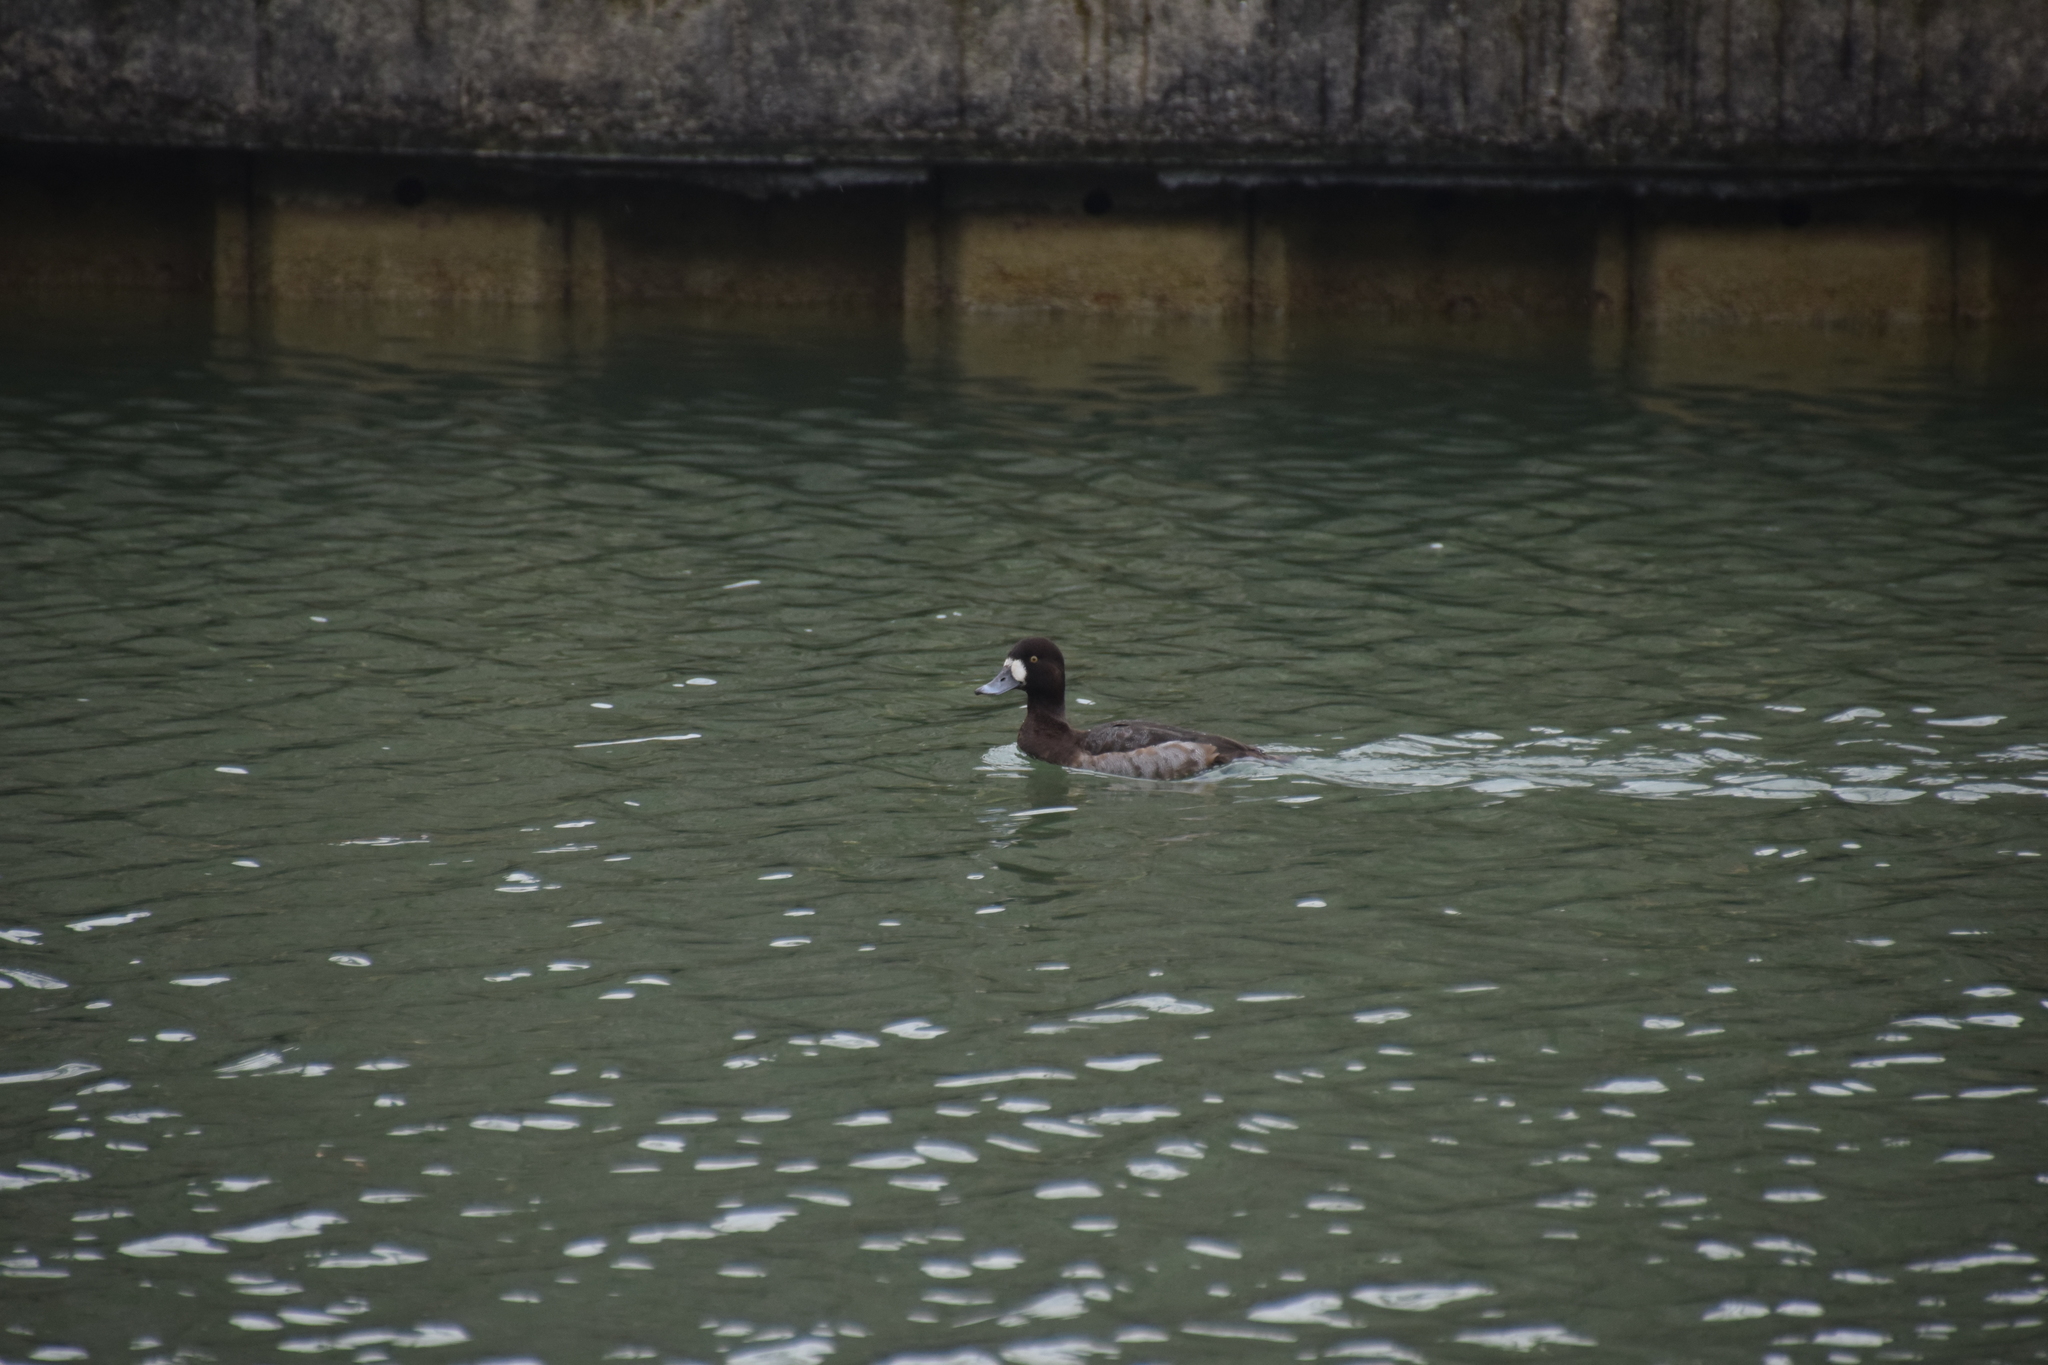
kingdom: Animalia
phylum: Chordata
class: Aves
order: Anseriformes
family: Anatidae
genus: Aythya
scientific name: Aythya marila
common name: Greater scaup
